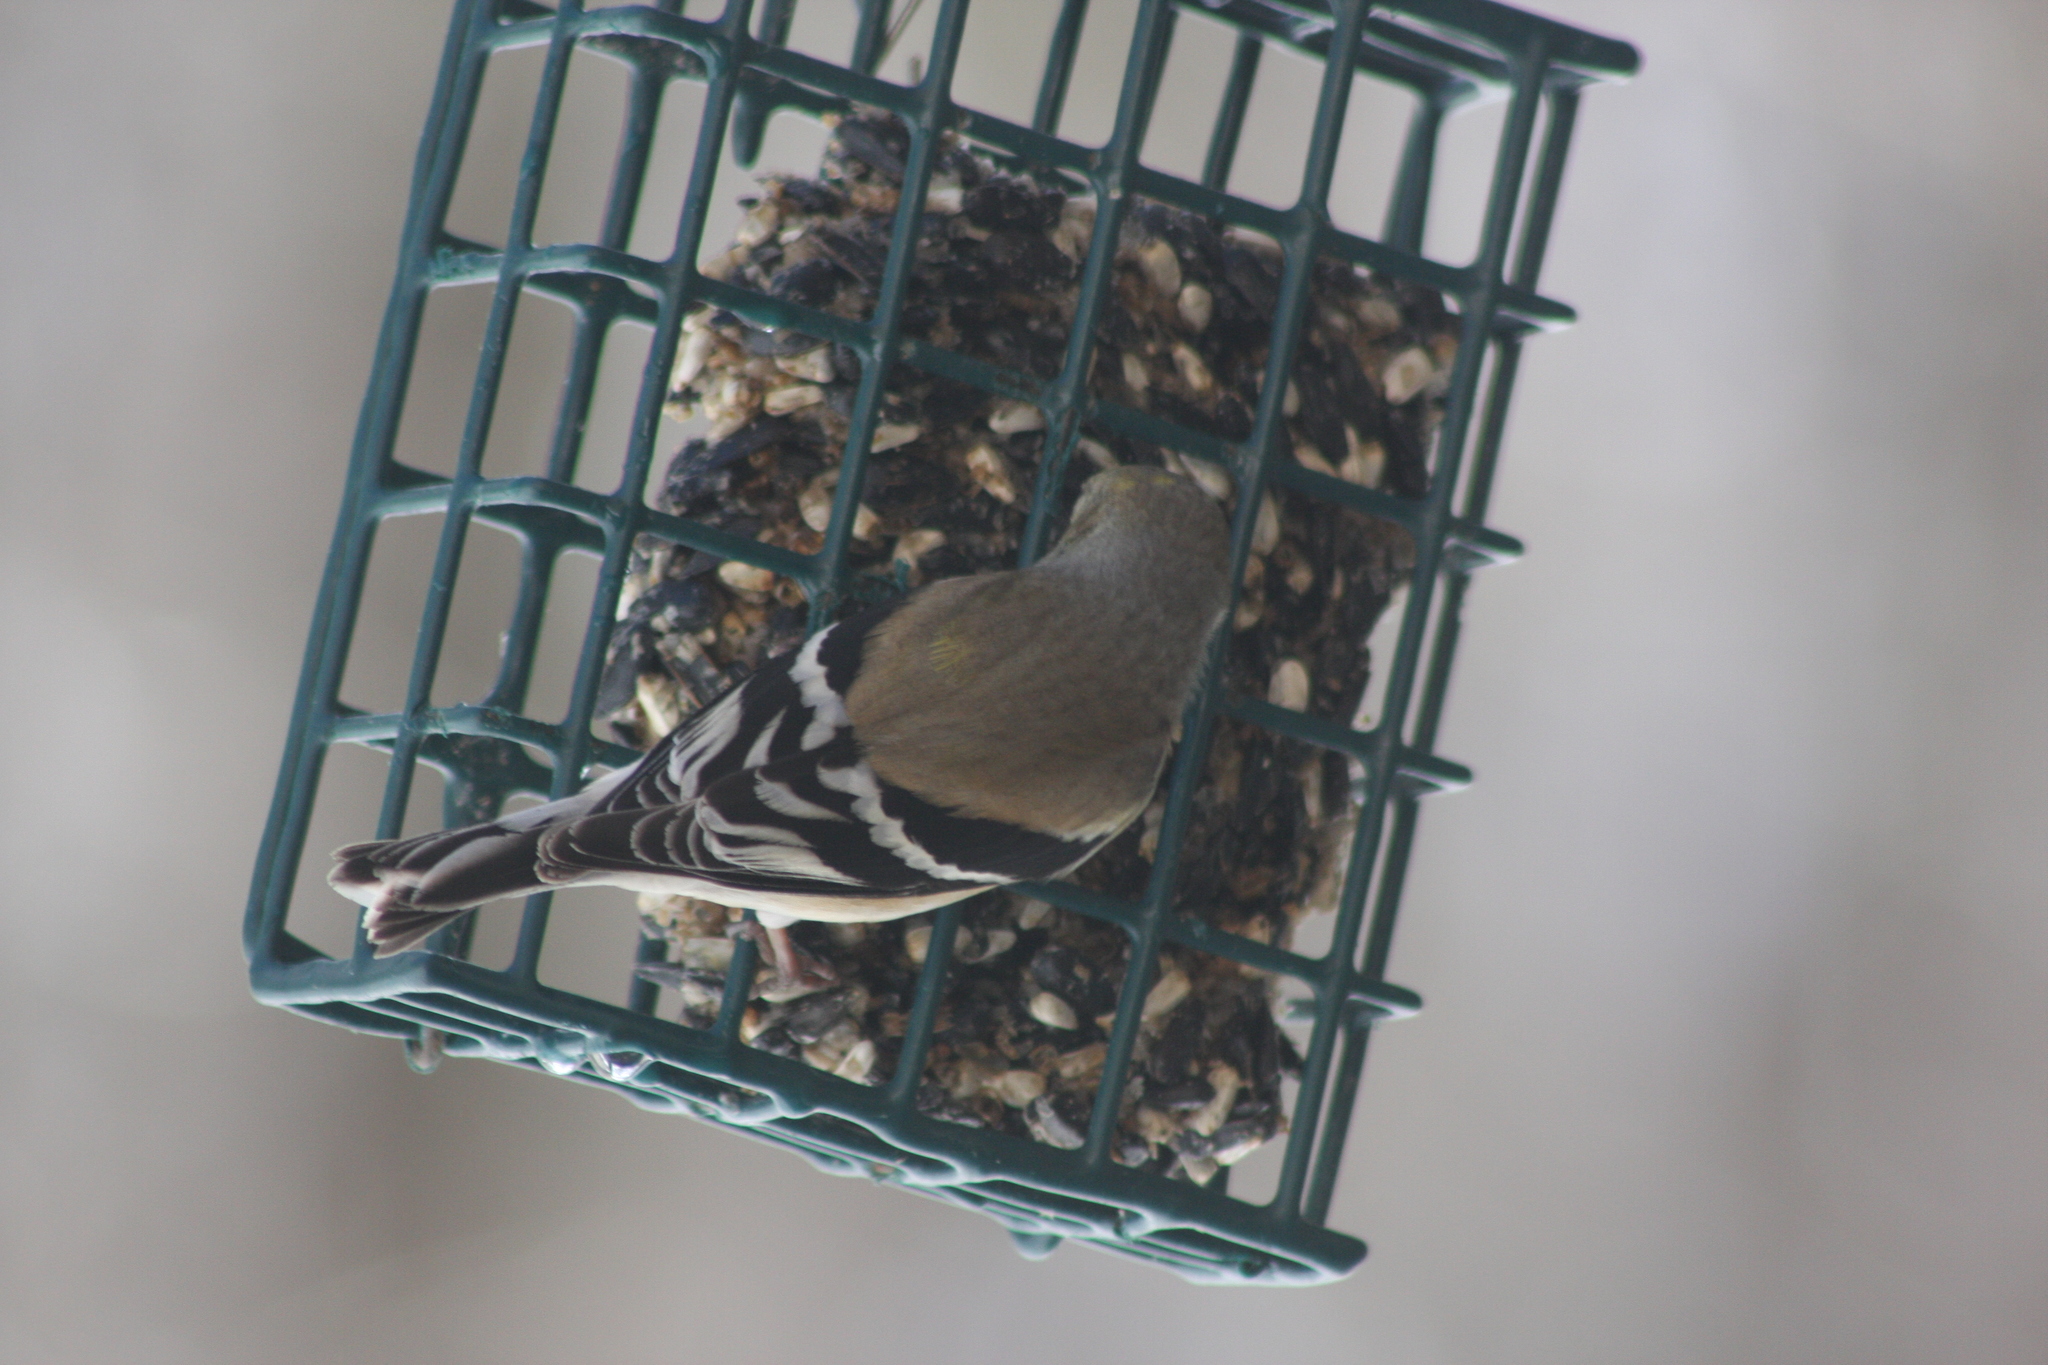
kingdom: Animalia
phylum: Chordata
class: Aves
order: Passeriformes
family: Fringillidae
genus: Spinus
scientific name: Spinus tristis
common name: American goldfinch
